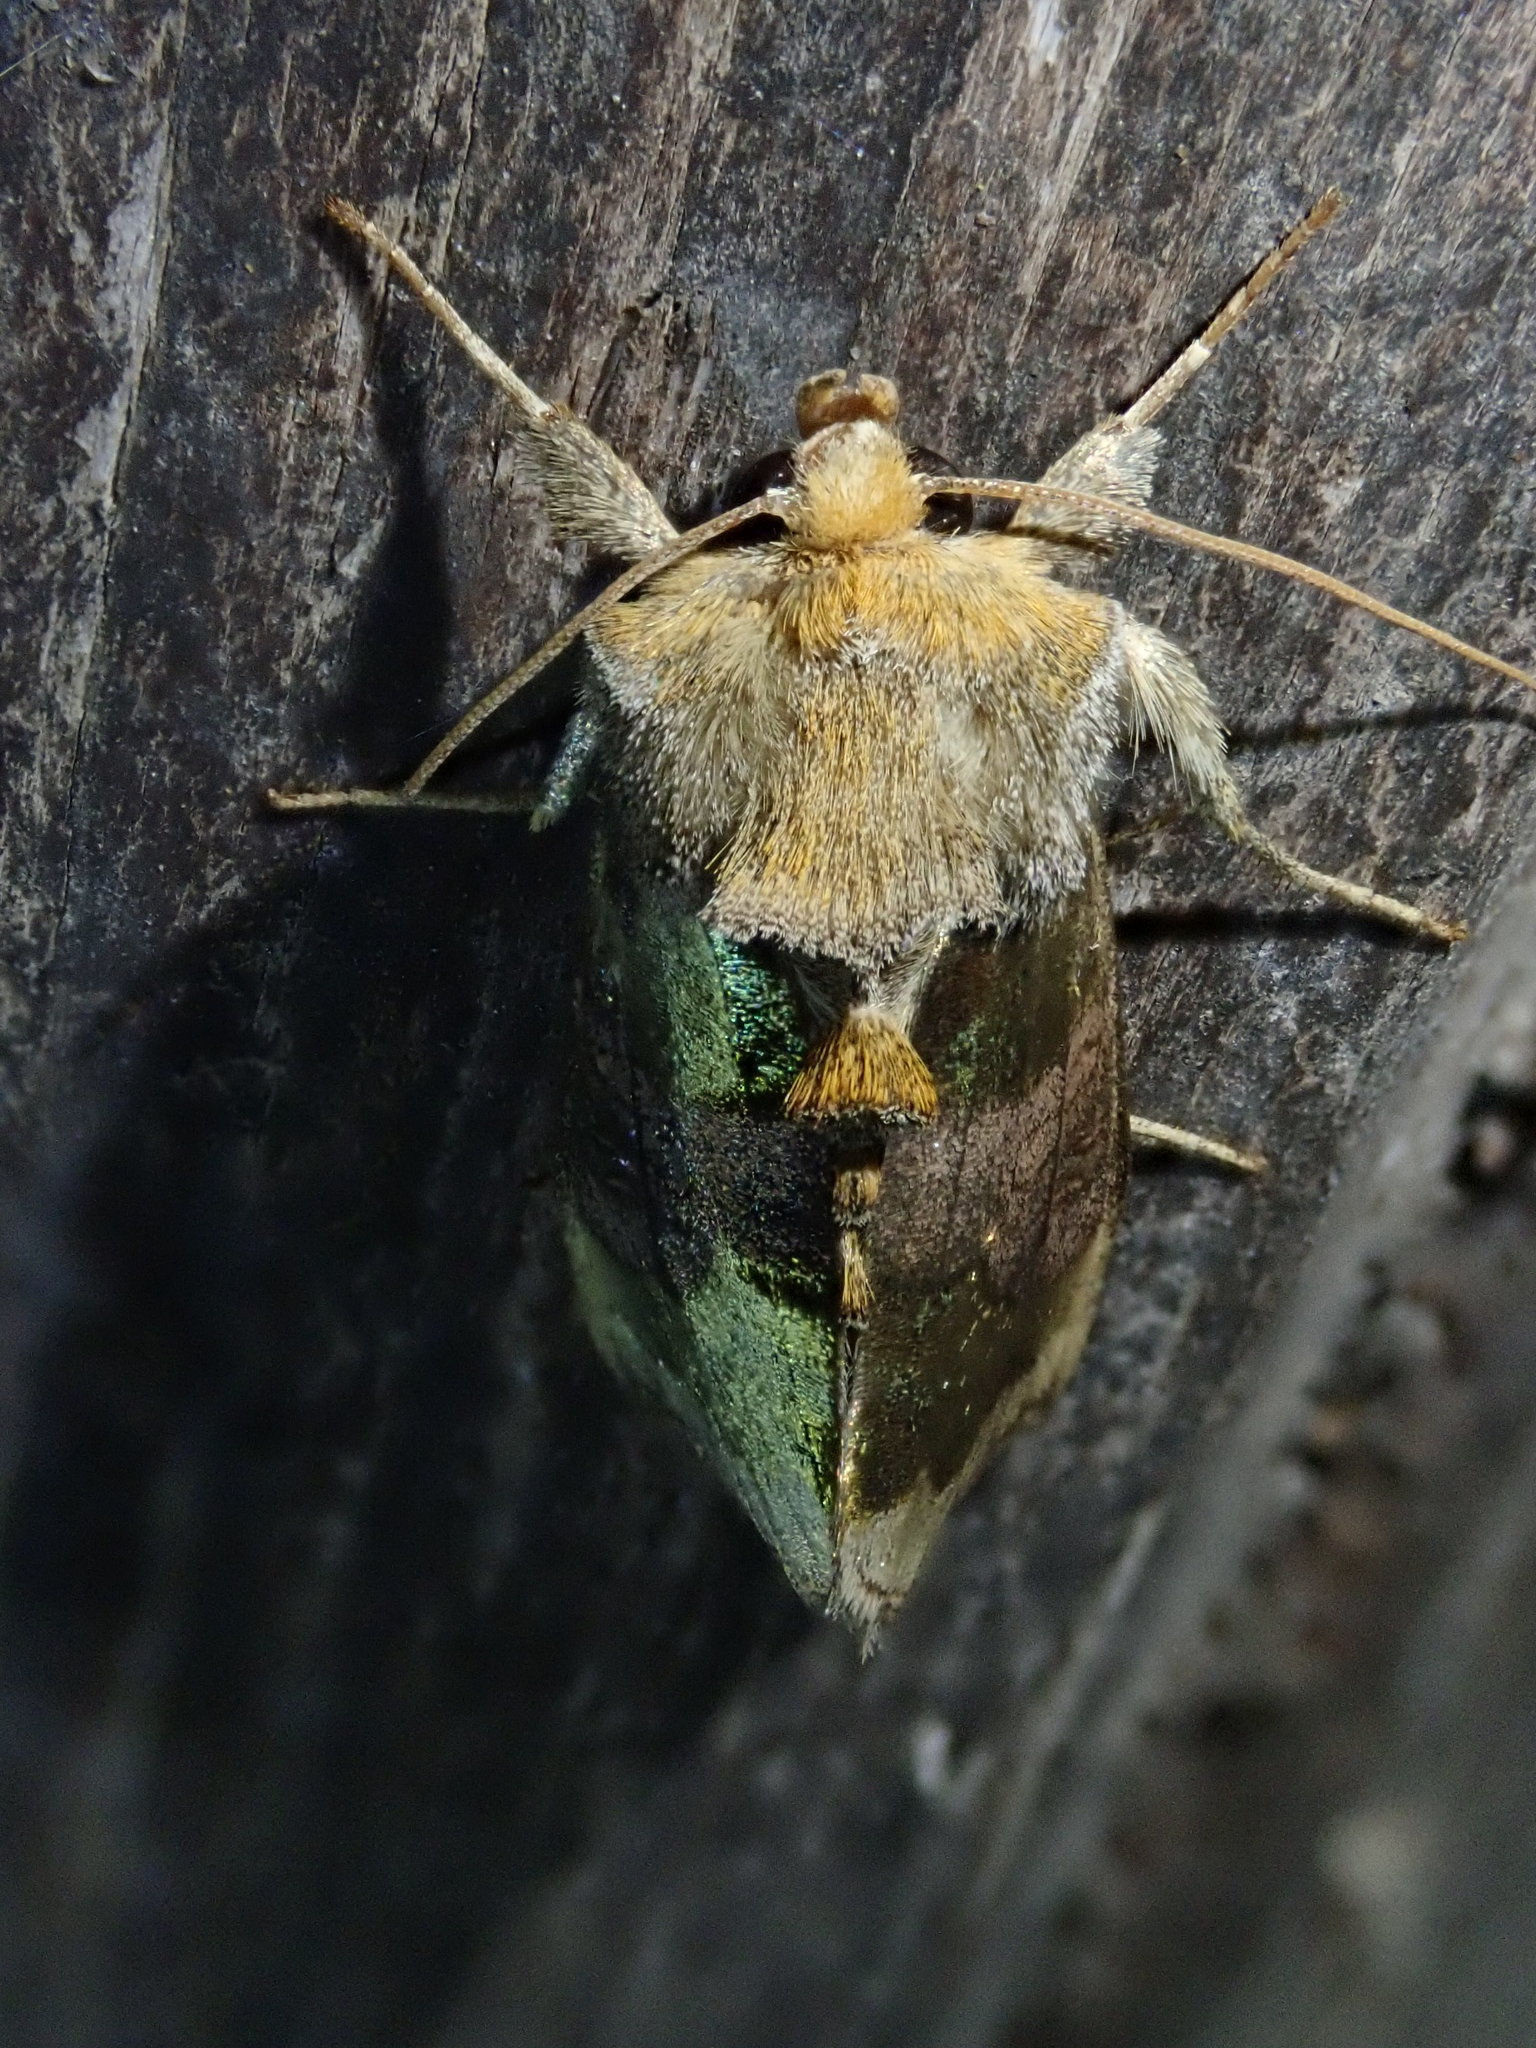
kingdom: Animalia
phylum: Arthropoda
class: Insecta
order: Lepidoptera
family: Noctuidae
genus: Diachrysia
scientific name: Diachrysia chrysitis
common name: Burnished brass
